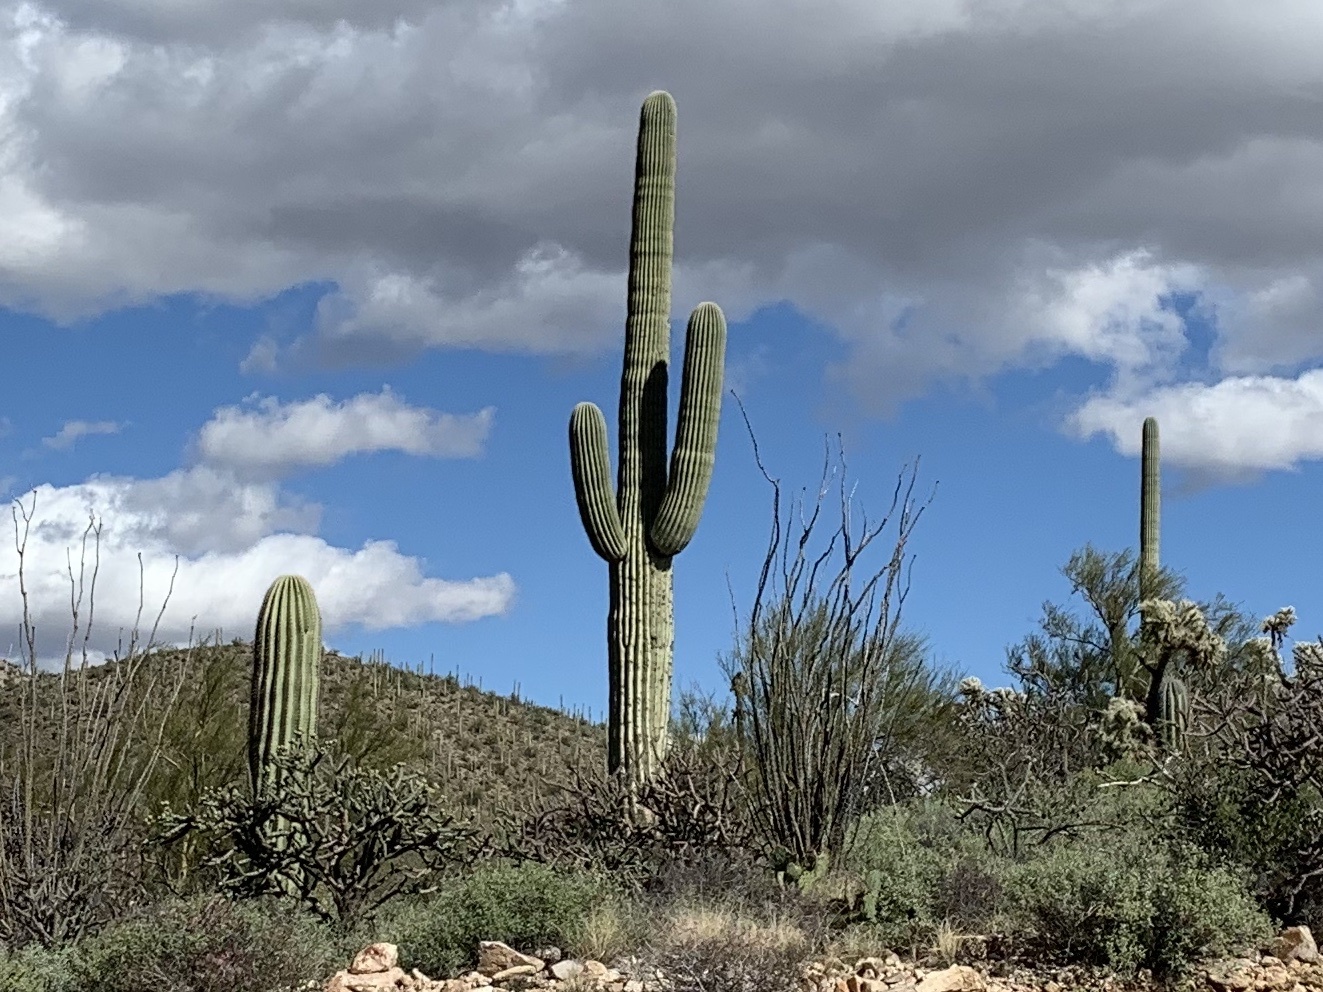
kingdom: Plantae
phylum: Tracheophyta
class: Magnoliopsida
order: Caryophyllales
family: Cactaceae
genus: Carnegiea
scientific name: Carnegiea gigantea
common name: Saguaro
